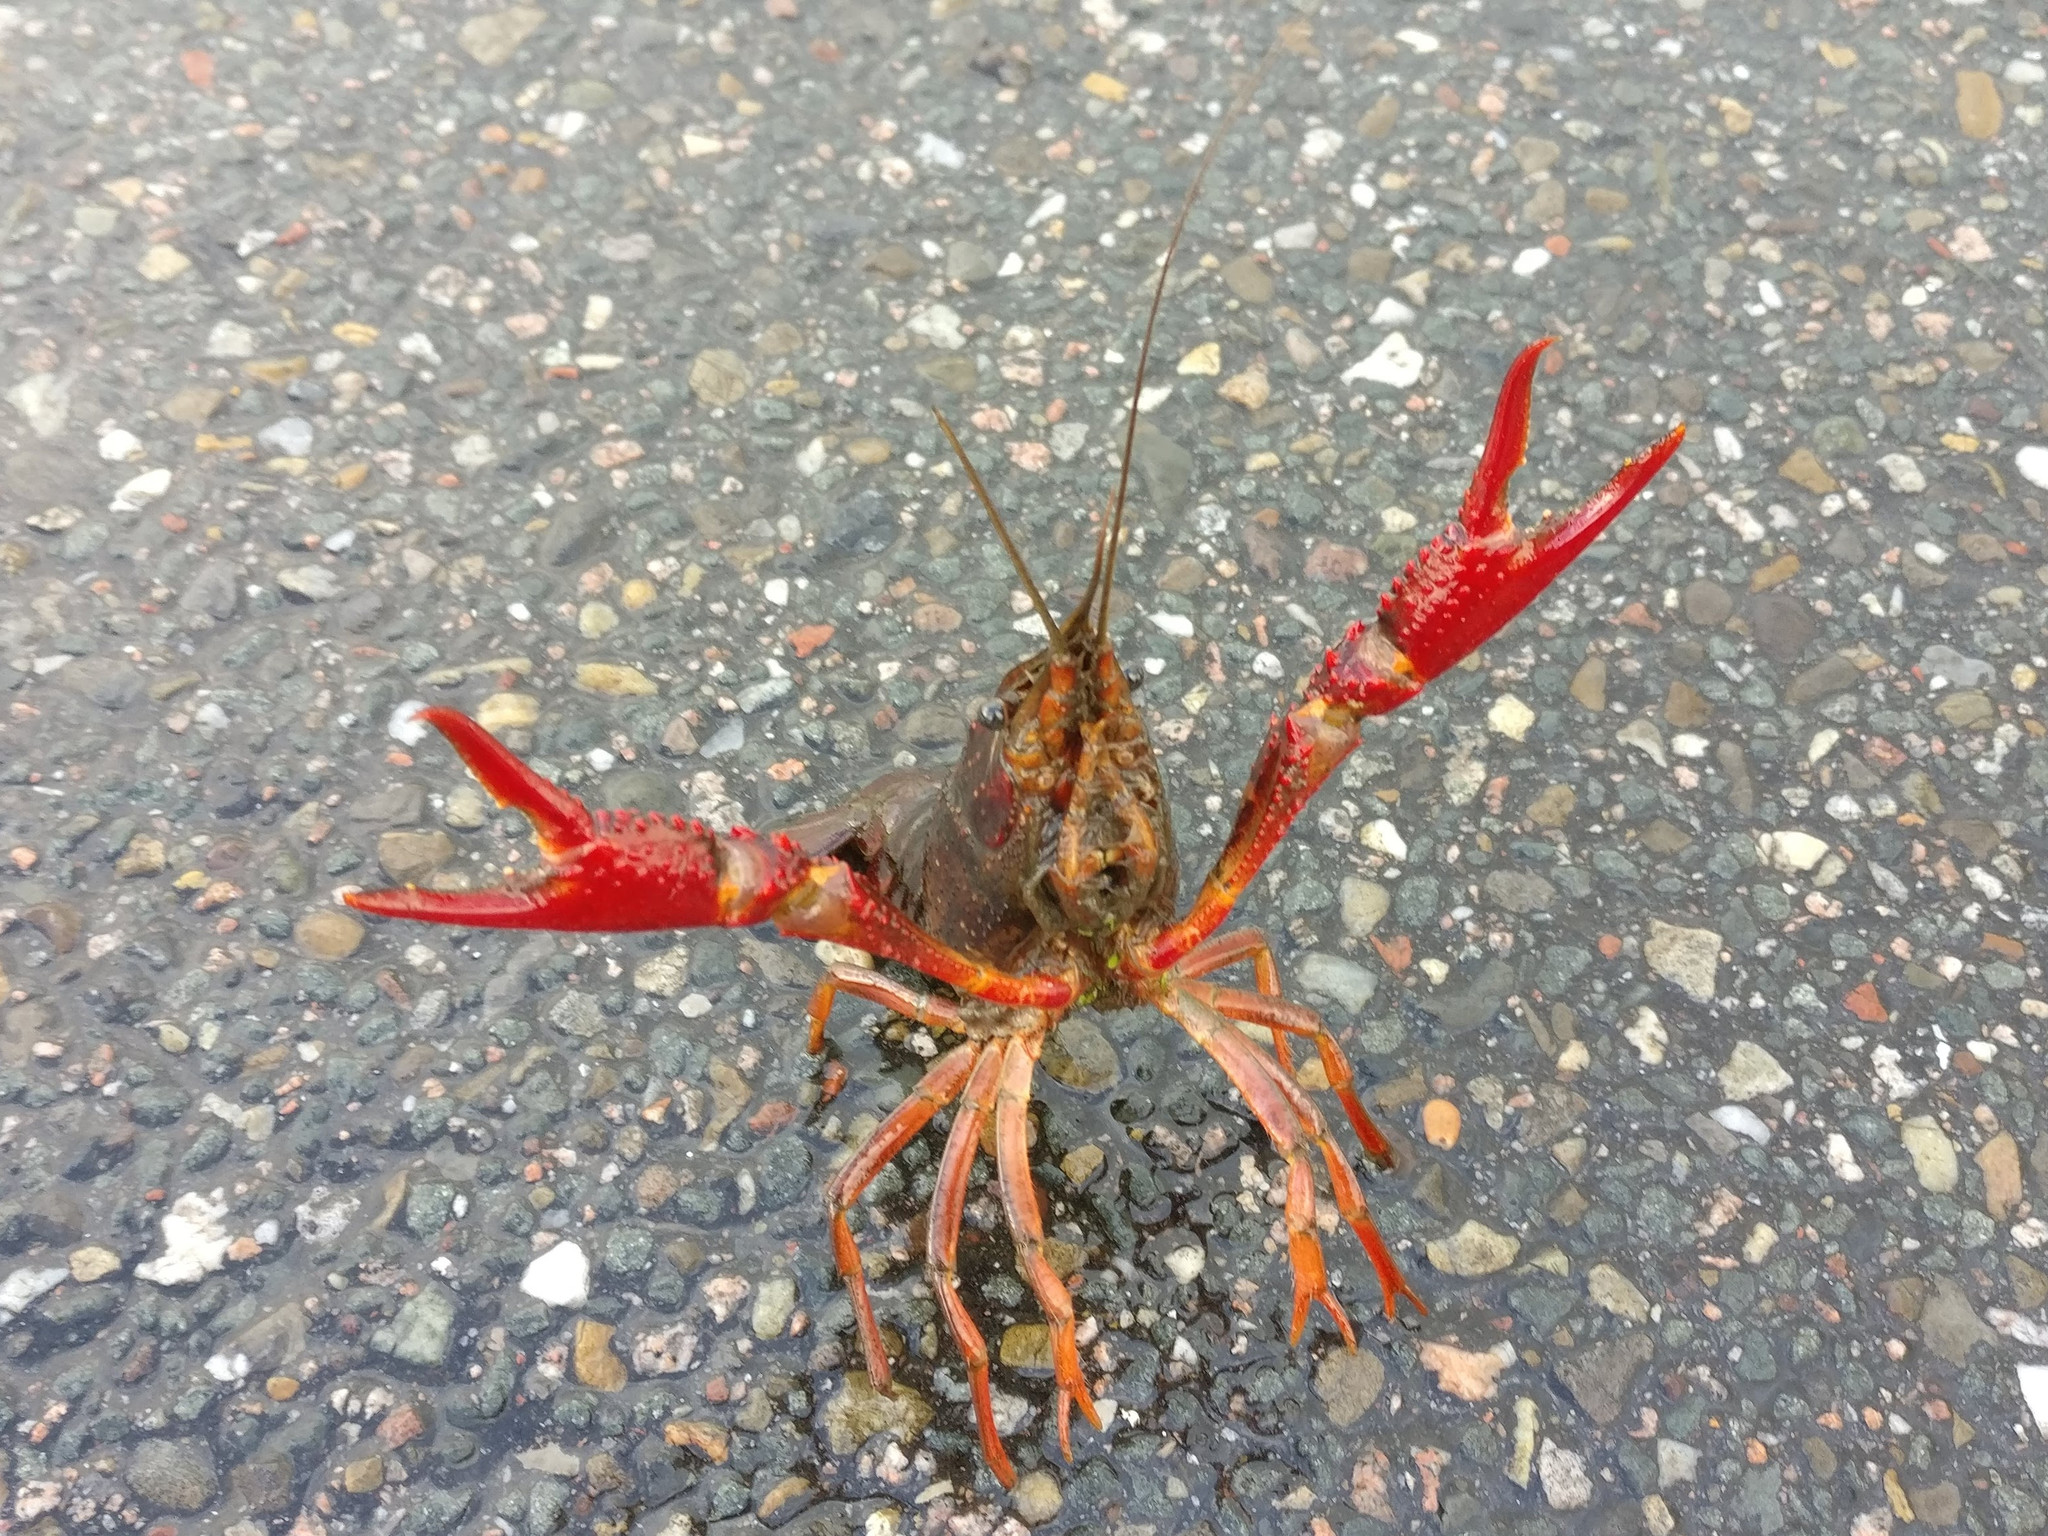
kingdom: Animalia
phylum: Arthropoda
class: Malacostraca
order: Decapoda
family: Cambaridae
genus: Procambarus
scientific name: Procambarus clarkii
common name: Red swamp crayfish
